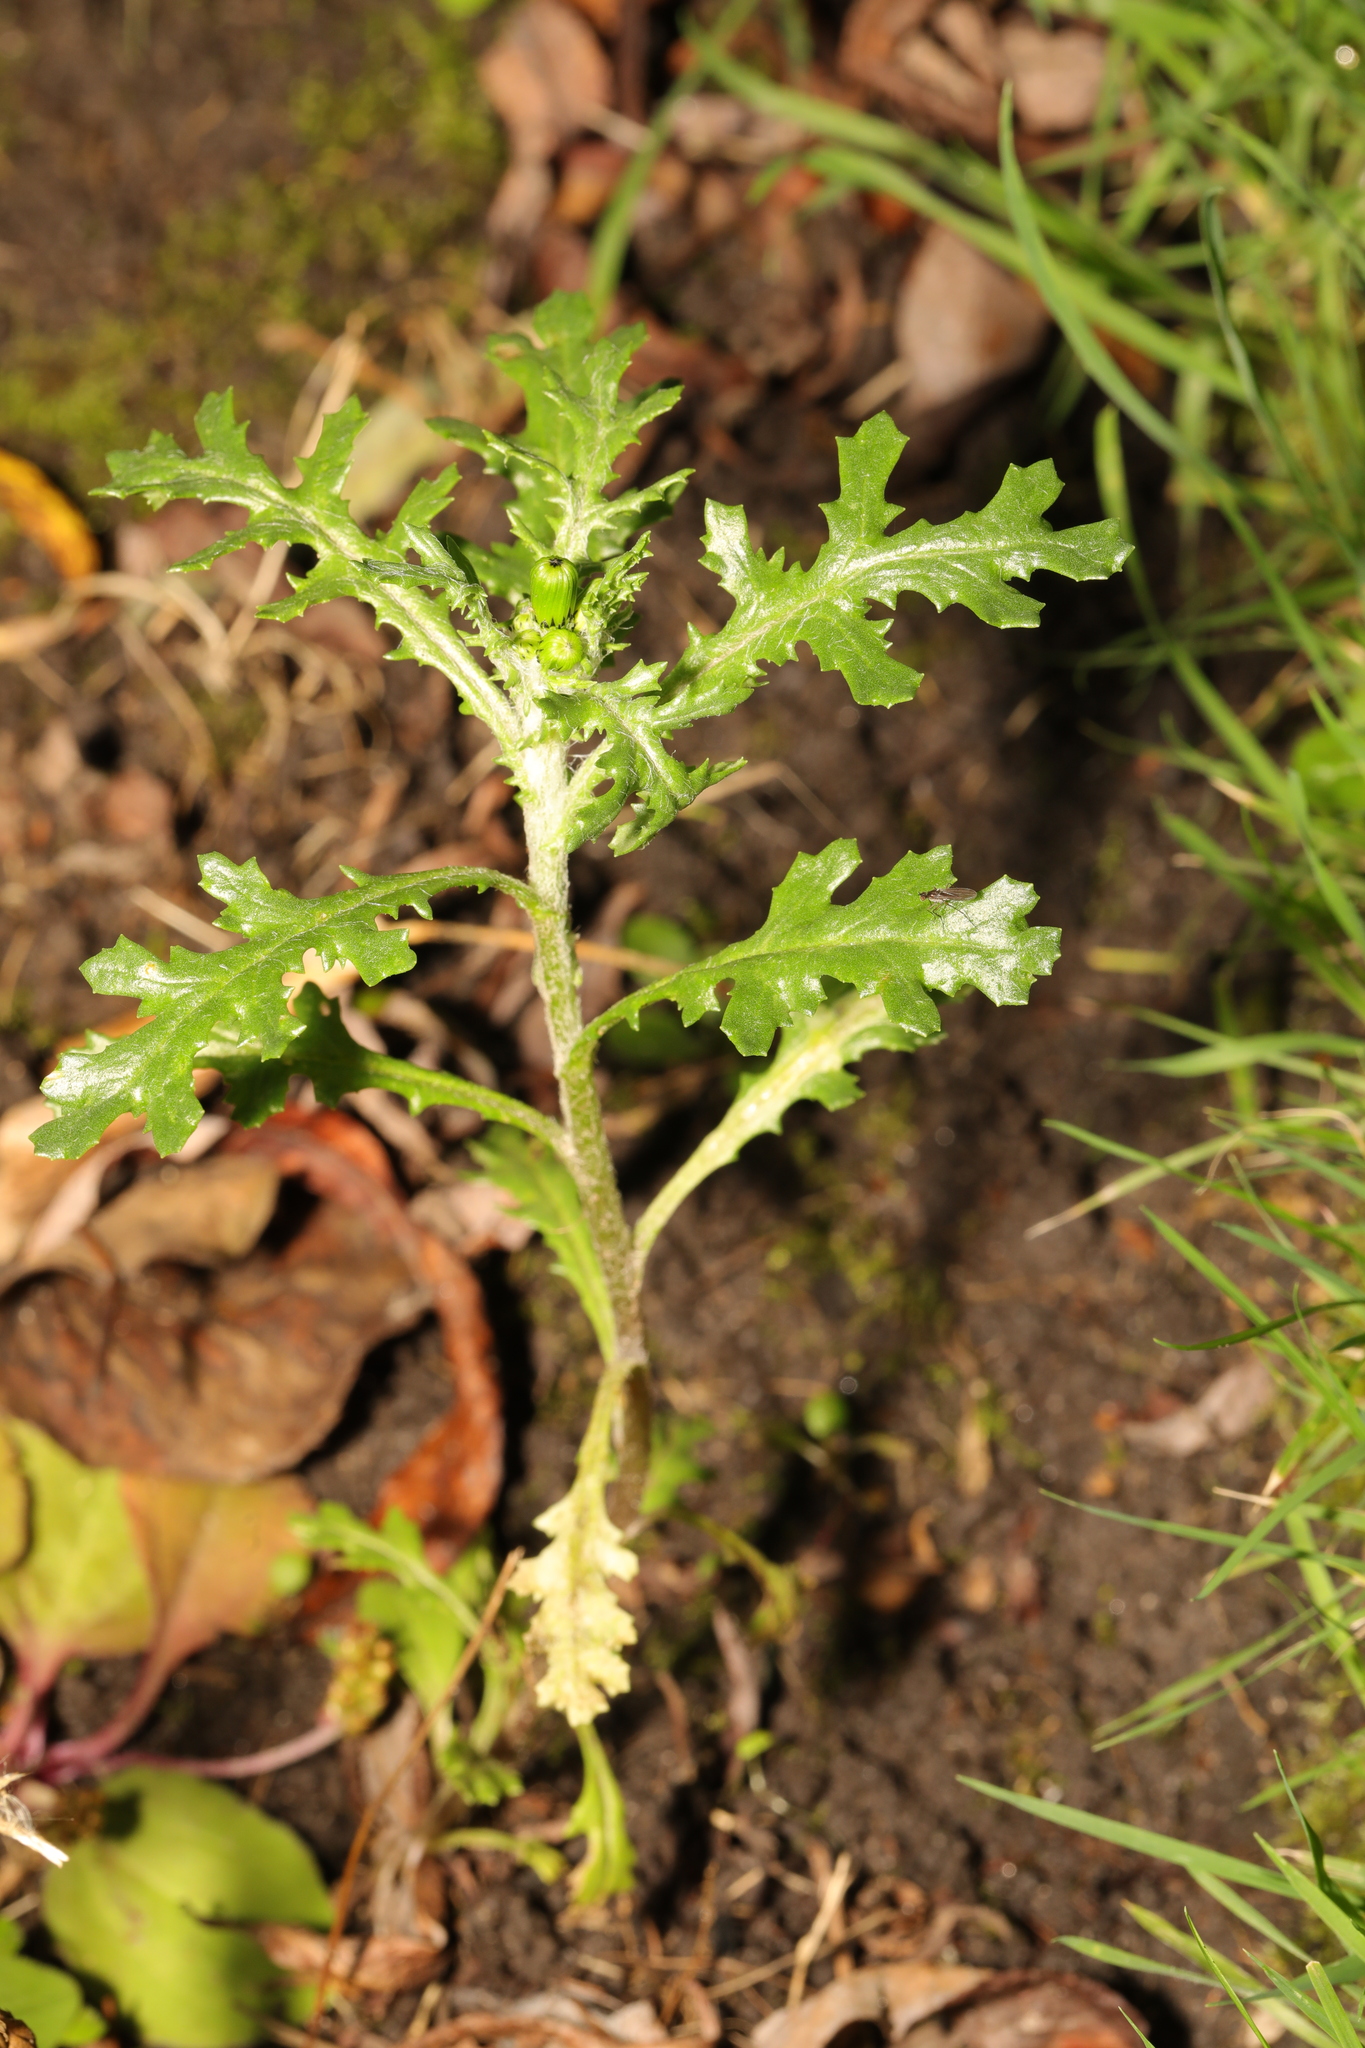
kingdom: Plantae
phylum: Tracheophyta
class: Magnoliopsida
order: Asterales
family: Asteraceae
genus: Senecio
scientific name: Senecio vulgaris
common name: Old-man-in-the-spring
